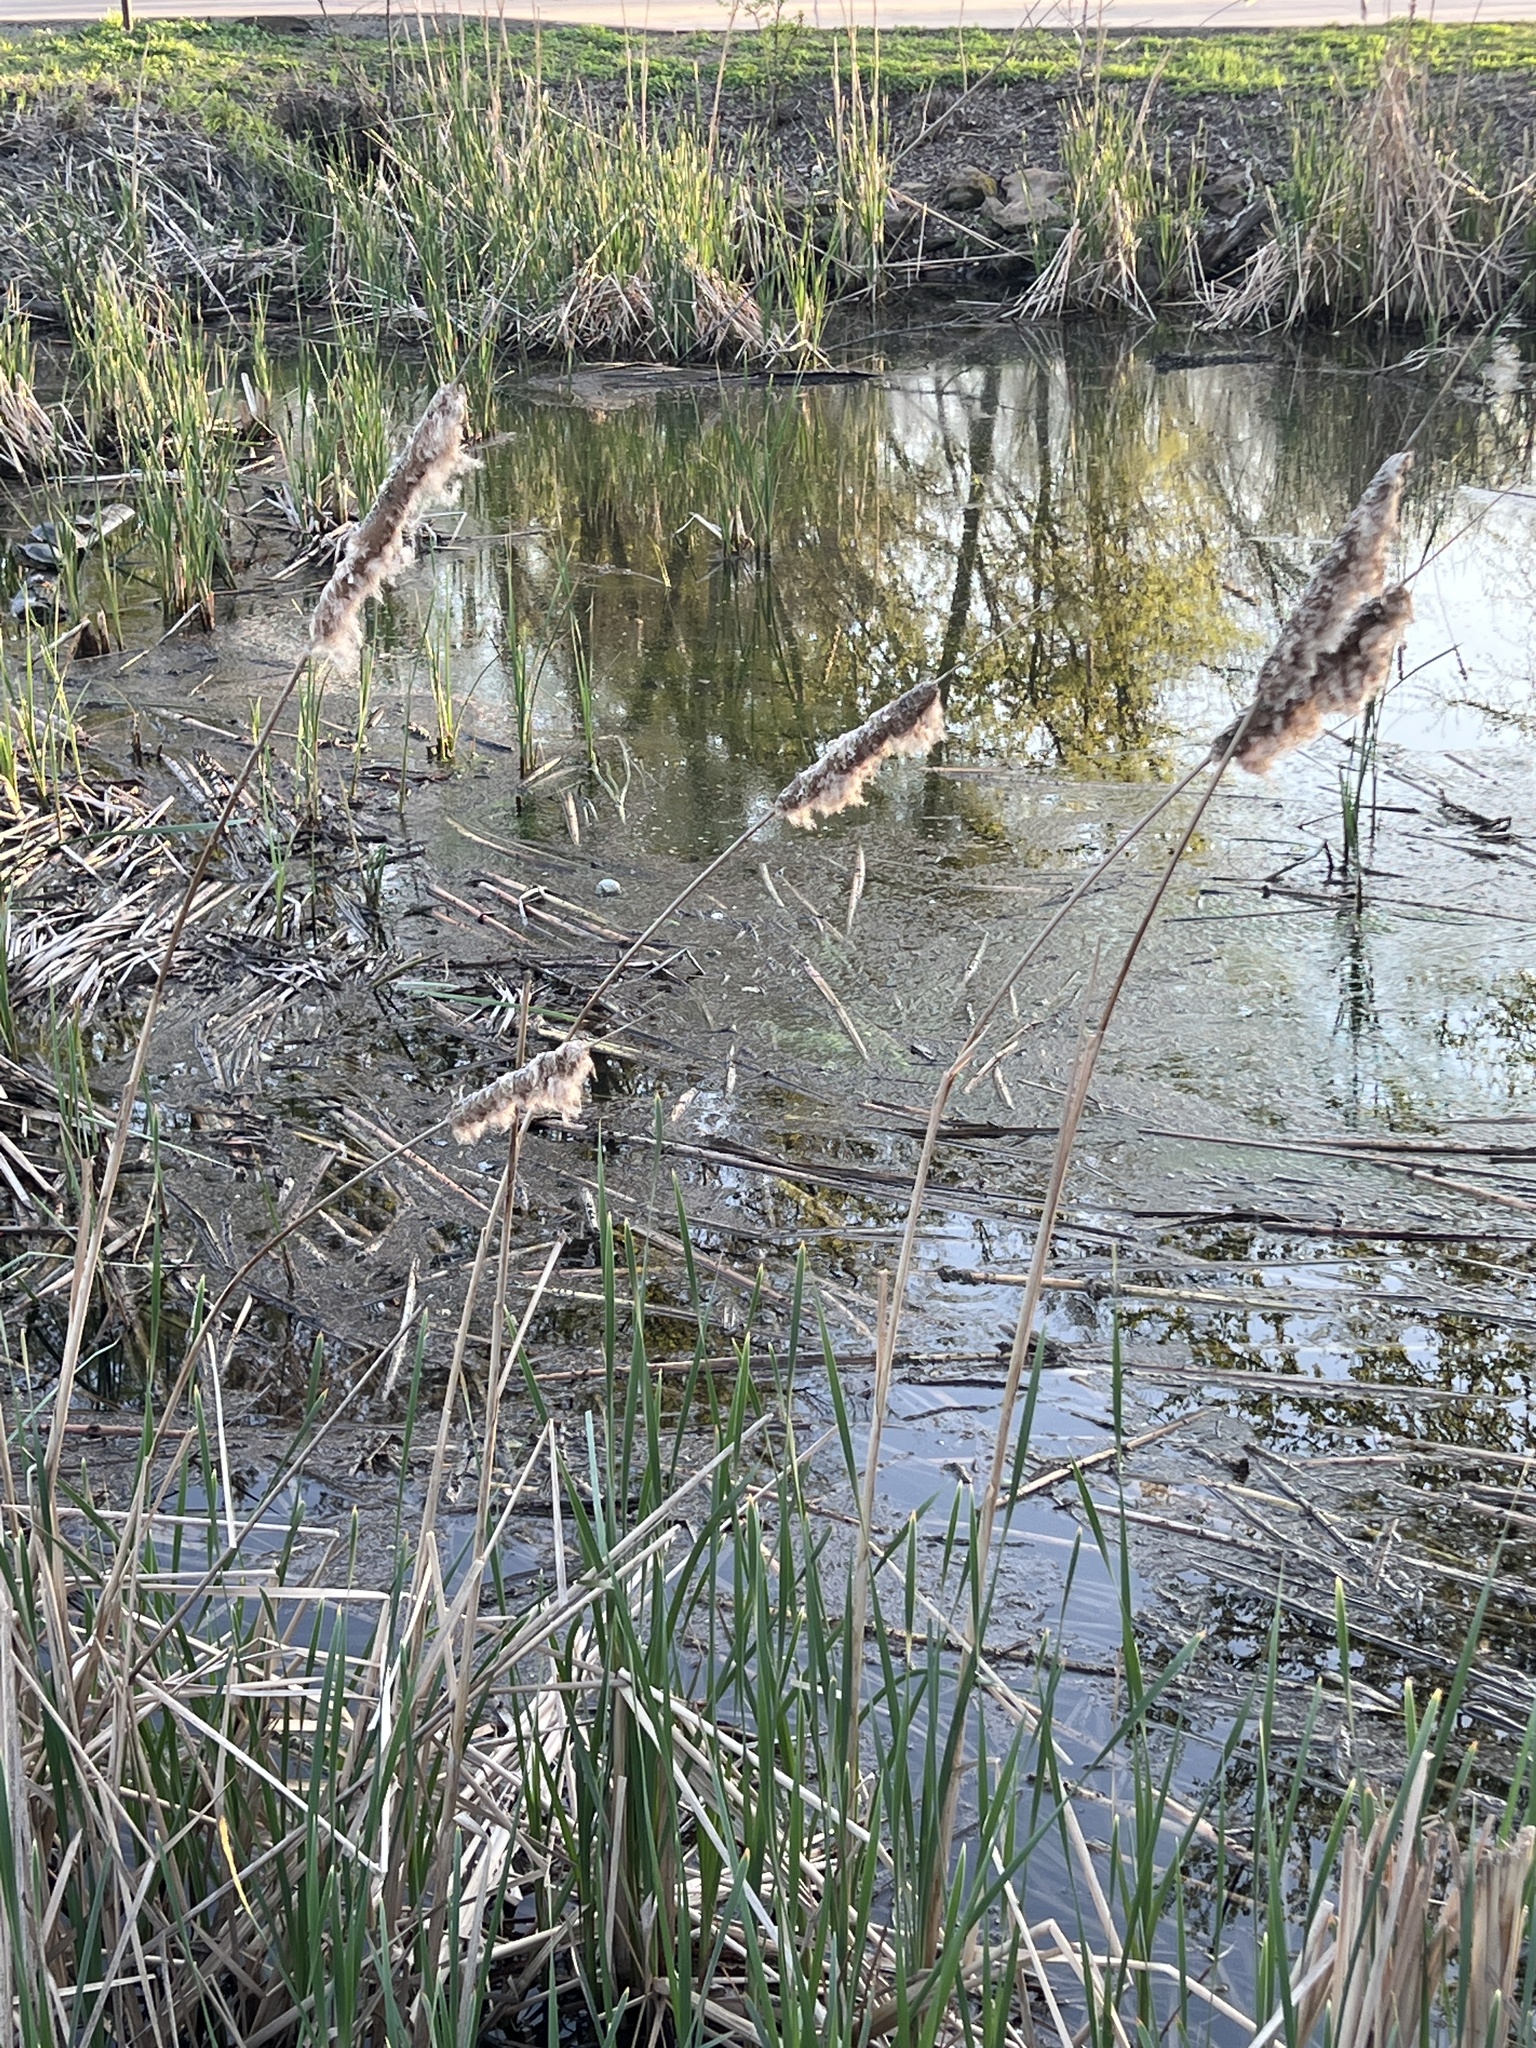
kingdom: Plantae
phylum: Tracheophyta
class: Liliopsida
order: Poales
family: Typhaceae
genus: Typha
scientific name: Typha latifolia
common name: Broadleaf cattail
